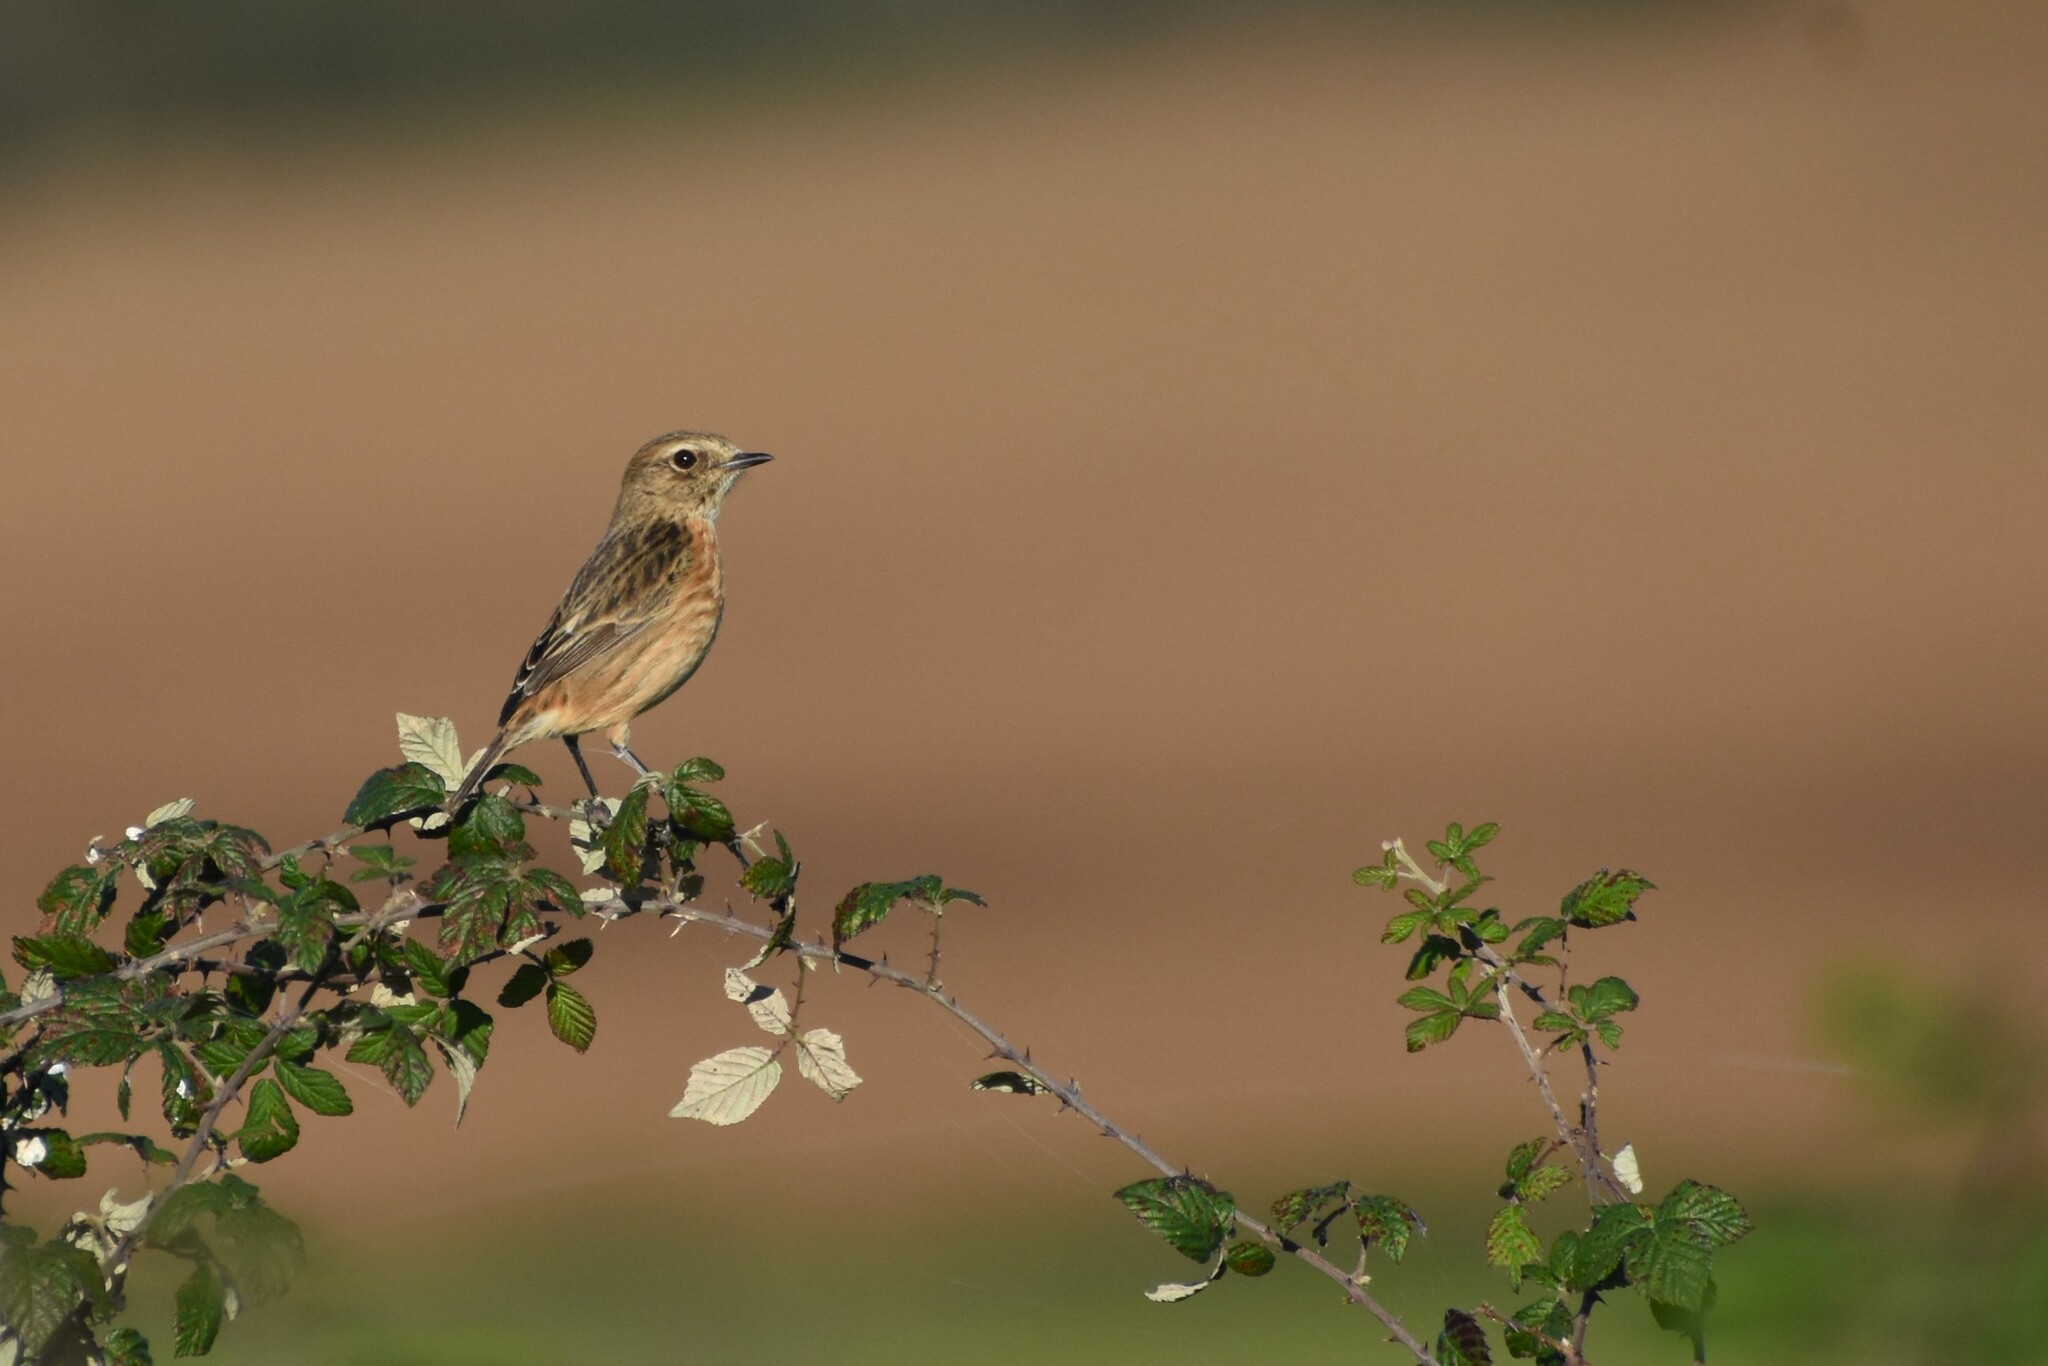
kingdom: Animalia
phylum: Chordata
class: Aves
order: Passeriformes
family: Muscicapidae
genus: Saxicola
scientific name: Saxicola rubicola
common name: European stonechat
